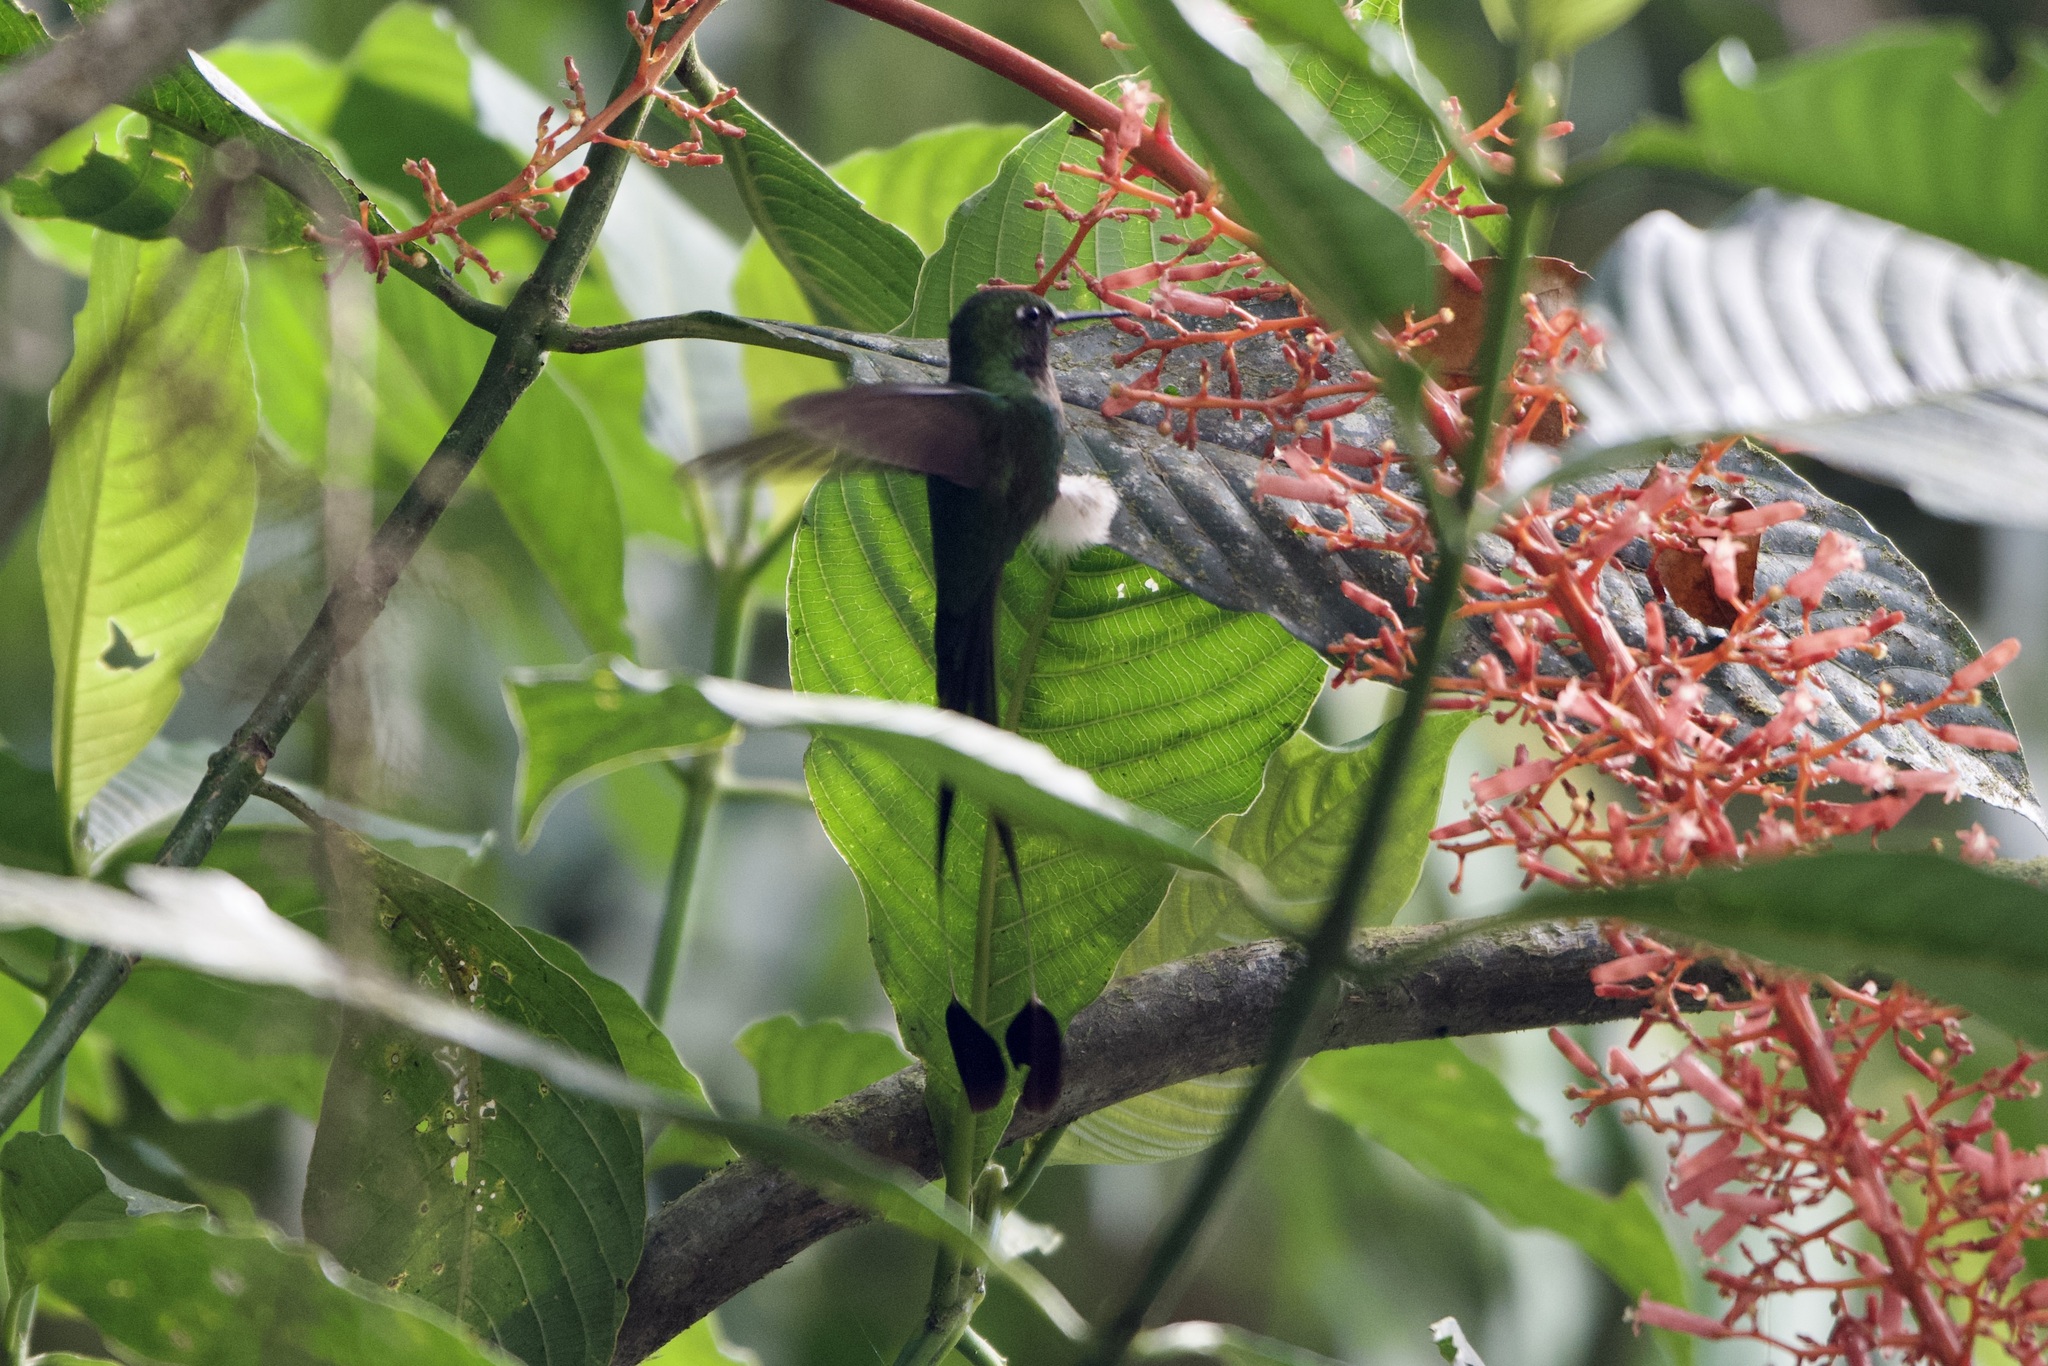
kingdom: Animalia
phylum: Chordata
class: Aves
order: Apodiformes
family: Trochilidae
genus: Ocreatus
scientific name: Ocreatus underwoodii
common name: Booted racket-tail
